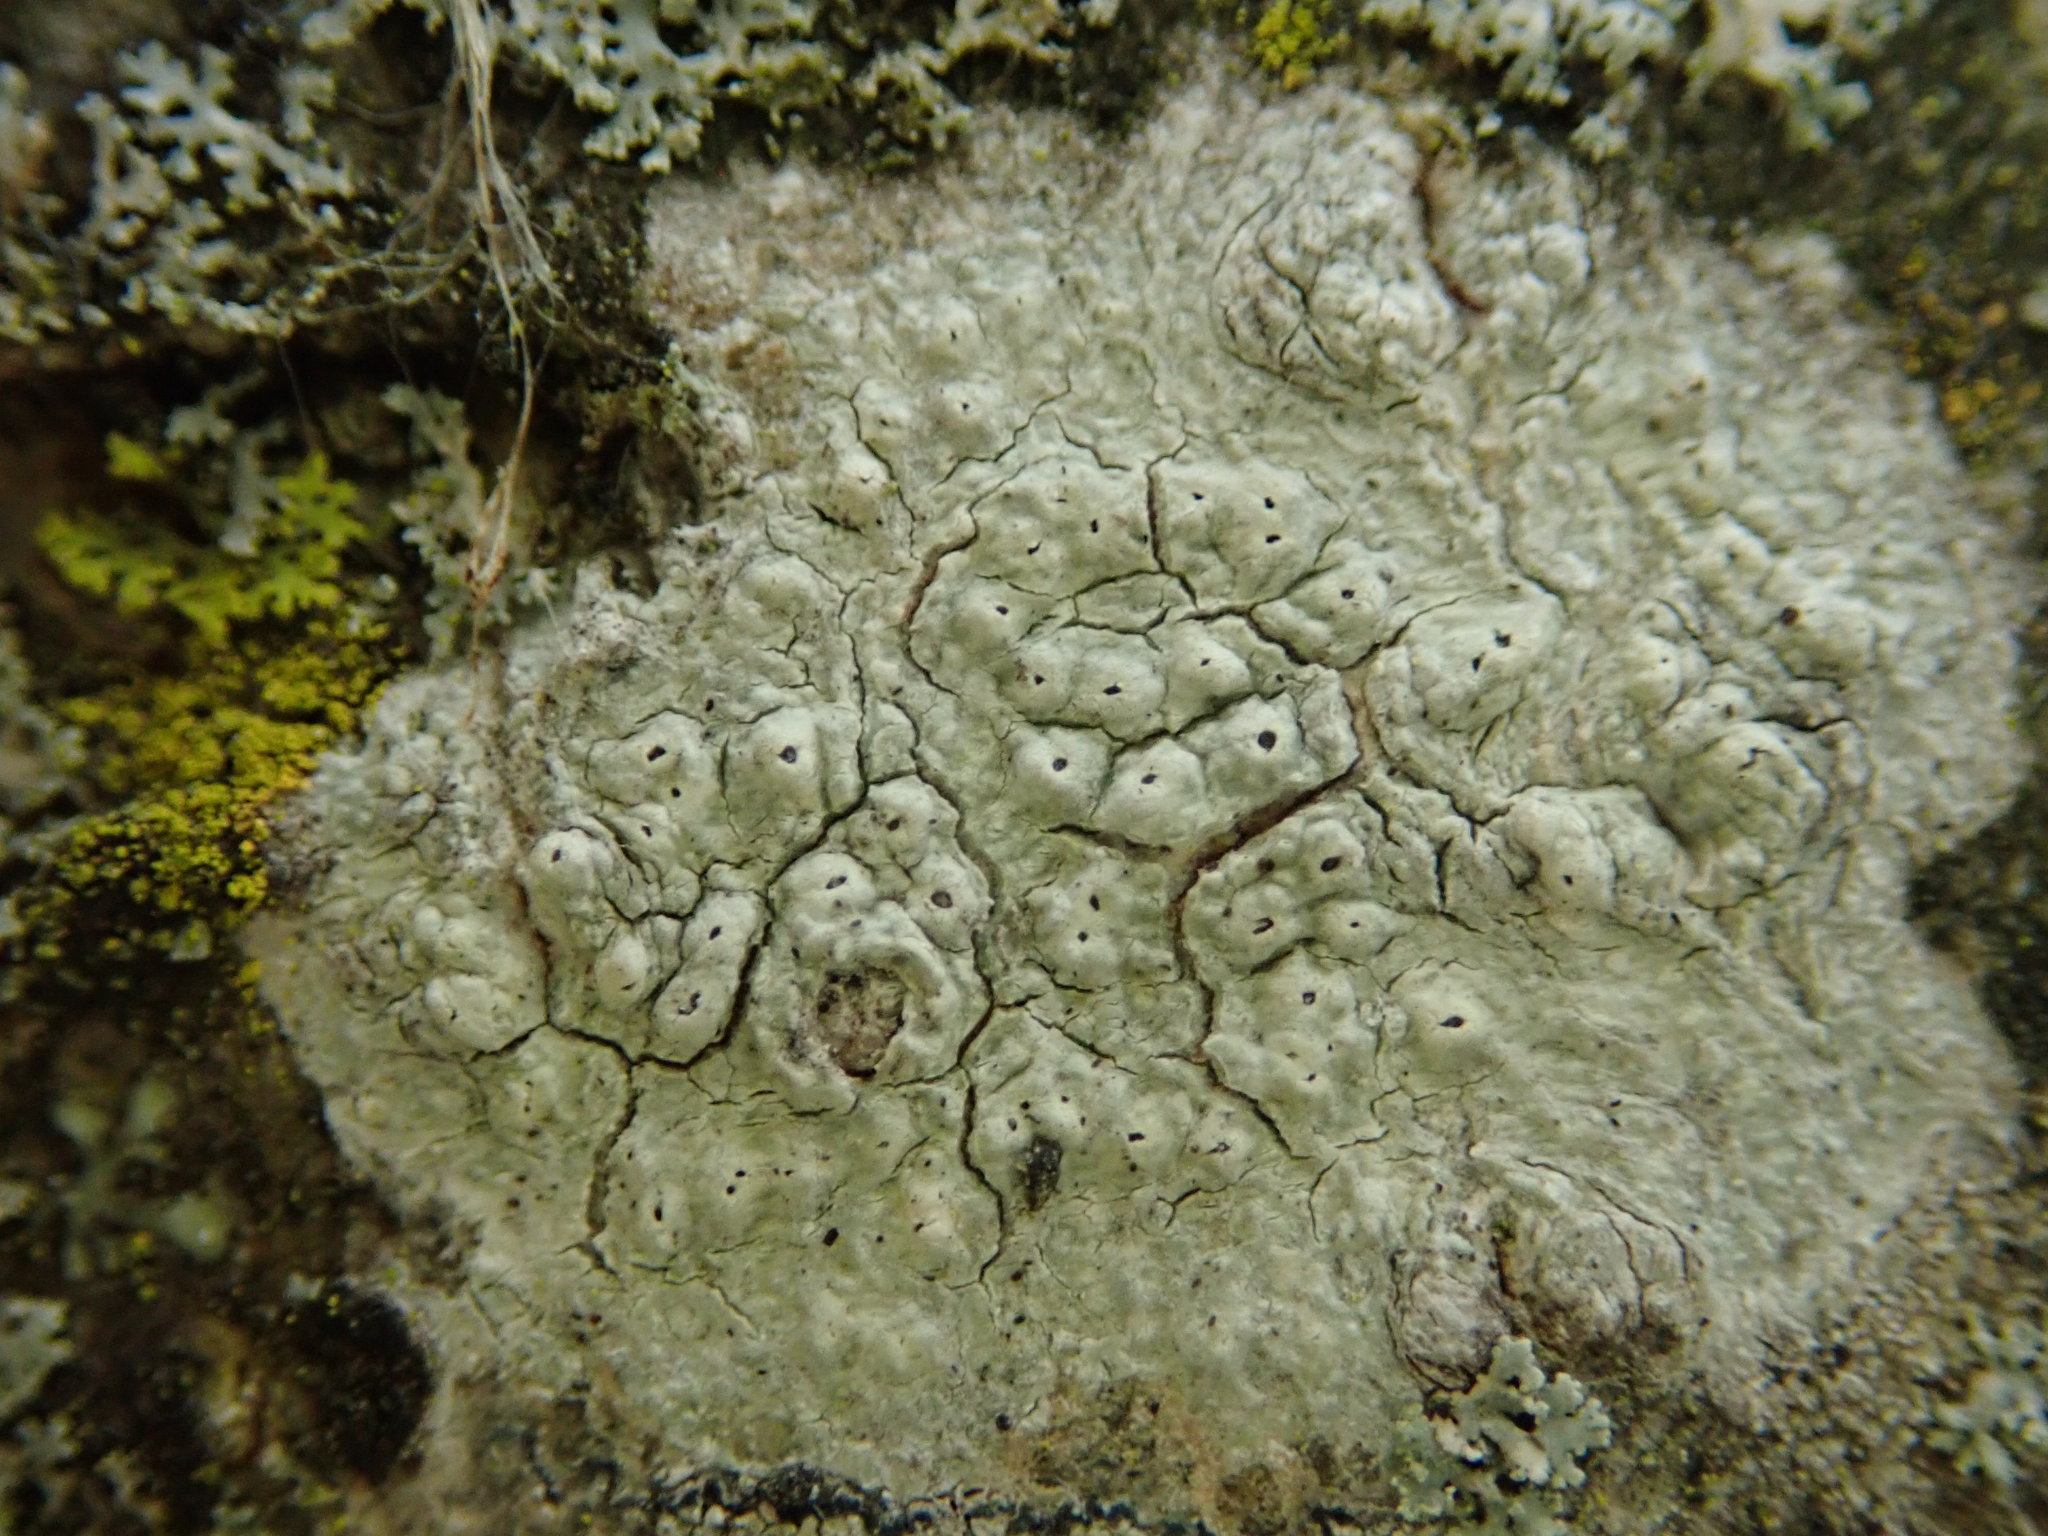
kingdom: Fungi
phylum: Ascomycota
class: Lecanoromycetes
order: Pertusariales
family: Pertusariaceae
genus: Pertusaria
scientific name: Pertusaria pustulata
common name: Branch bumps
